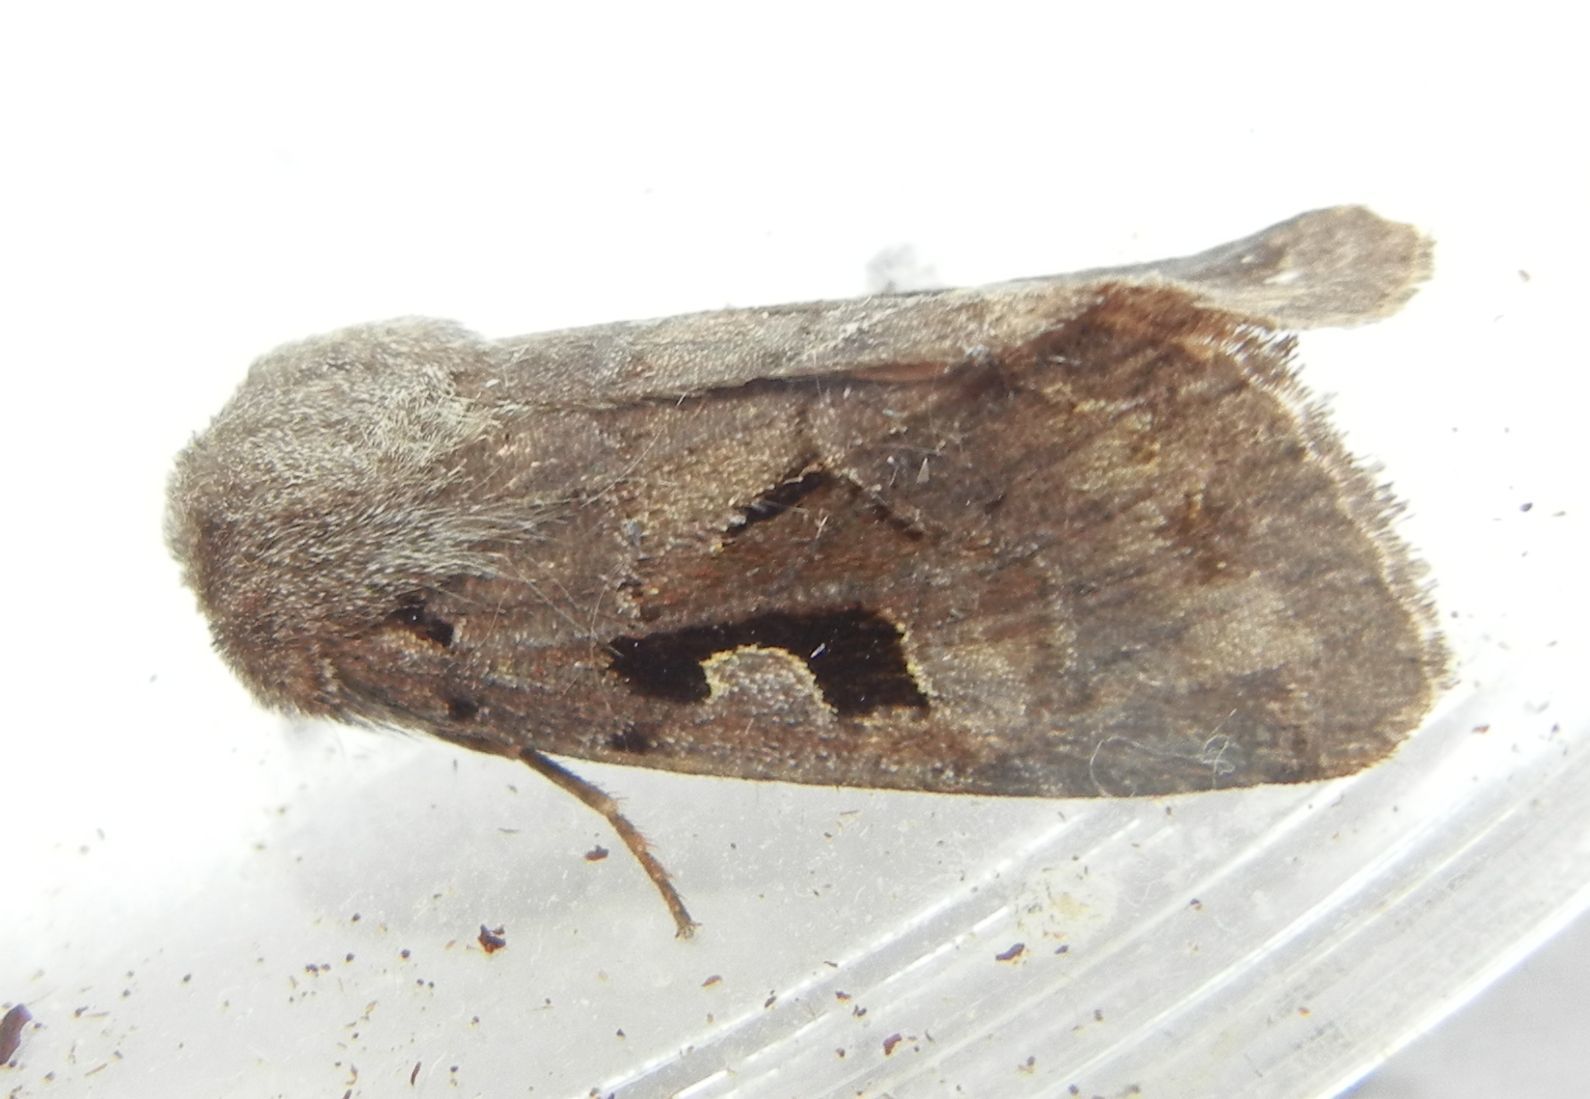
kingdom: Animalia
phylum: Arthropoda
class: Insecta
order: Lepidoptera
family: Noctuidae
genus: Orthosia
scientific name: Orthosia gothica
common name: Hebrew character
